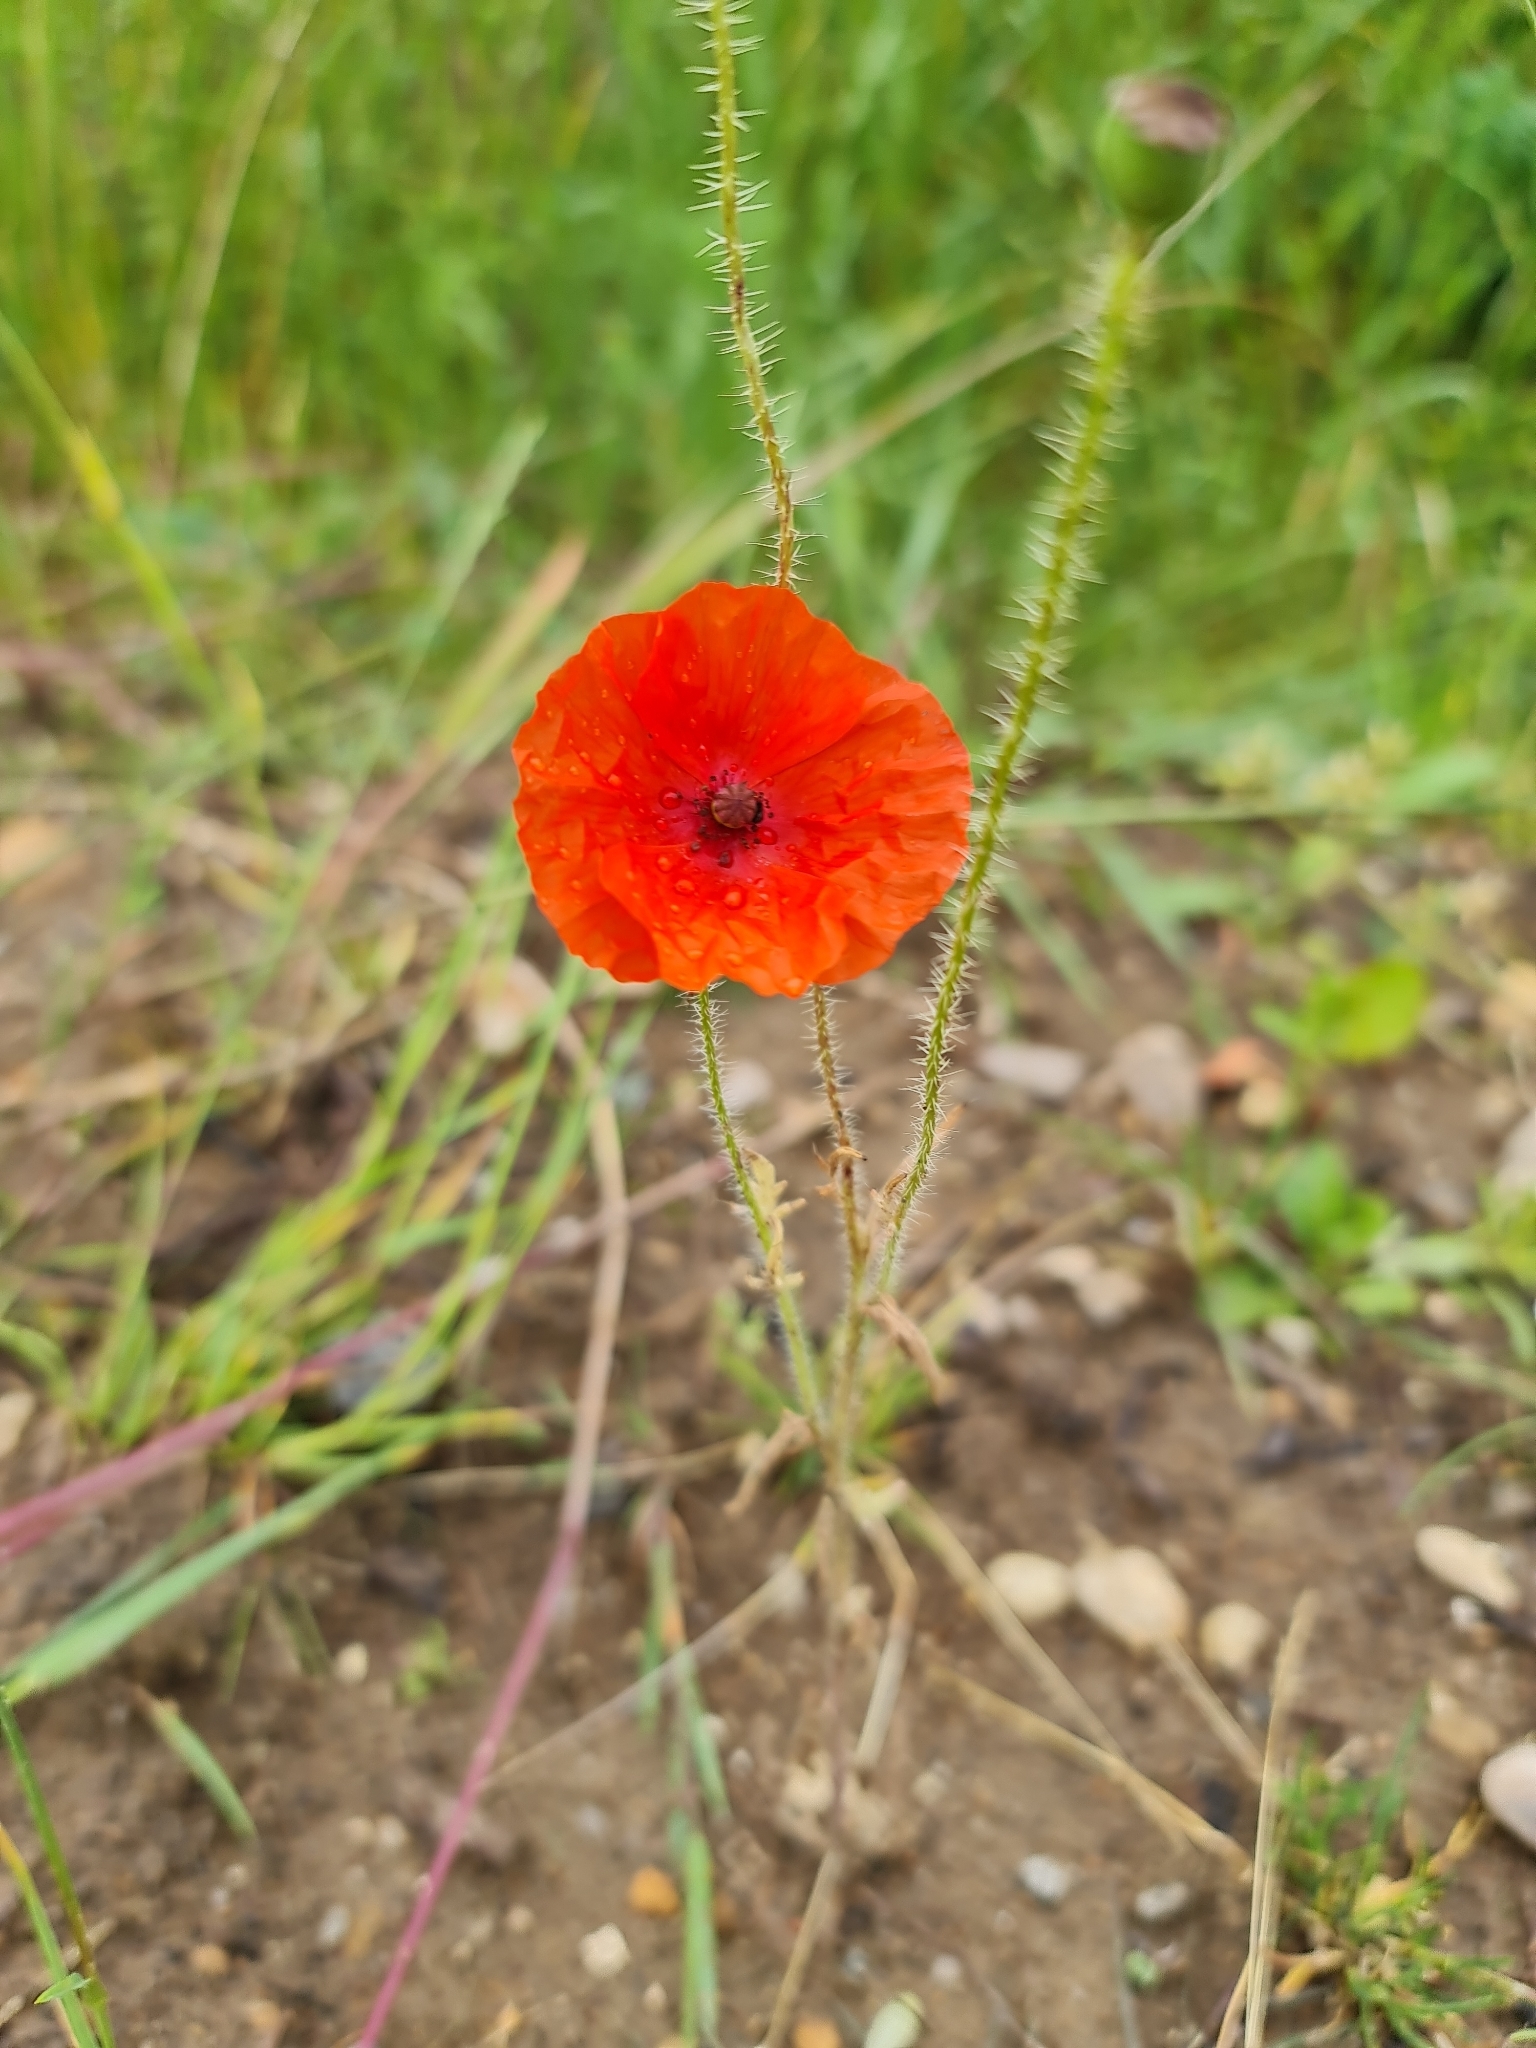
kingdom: Plantae
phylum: Tracheophyta
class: Magnoliopsida
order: Ranunculales
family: Papaveraceae
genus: Papaver
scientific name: Papaver rhoeas
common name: Corn poppy
